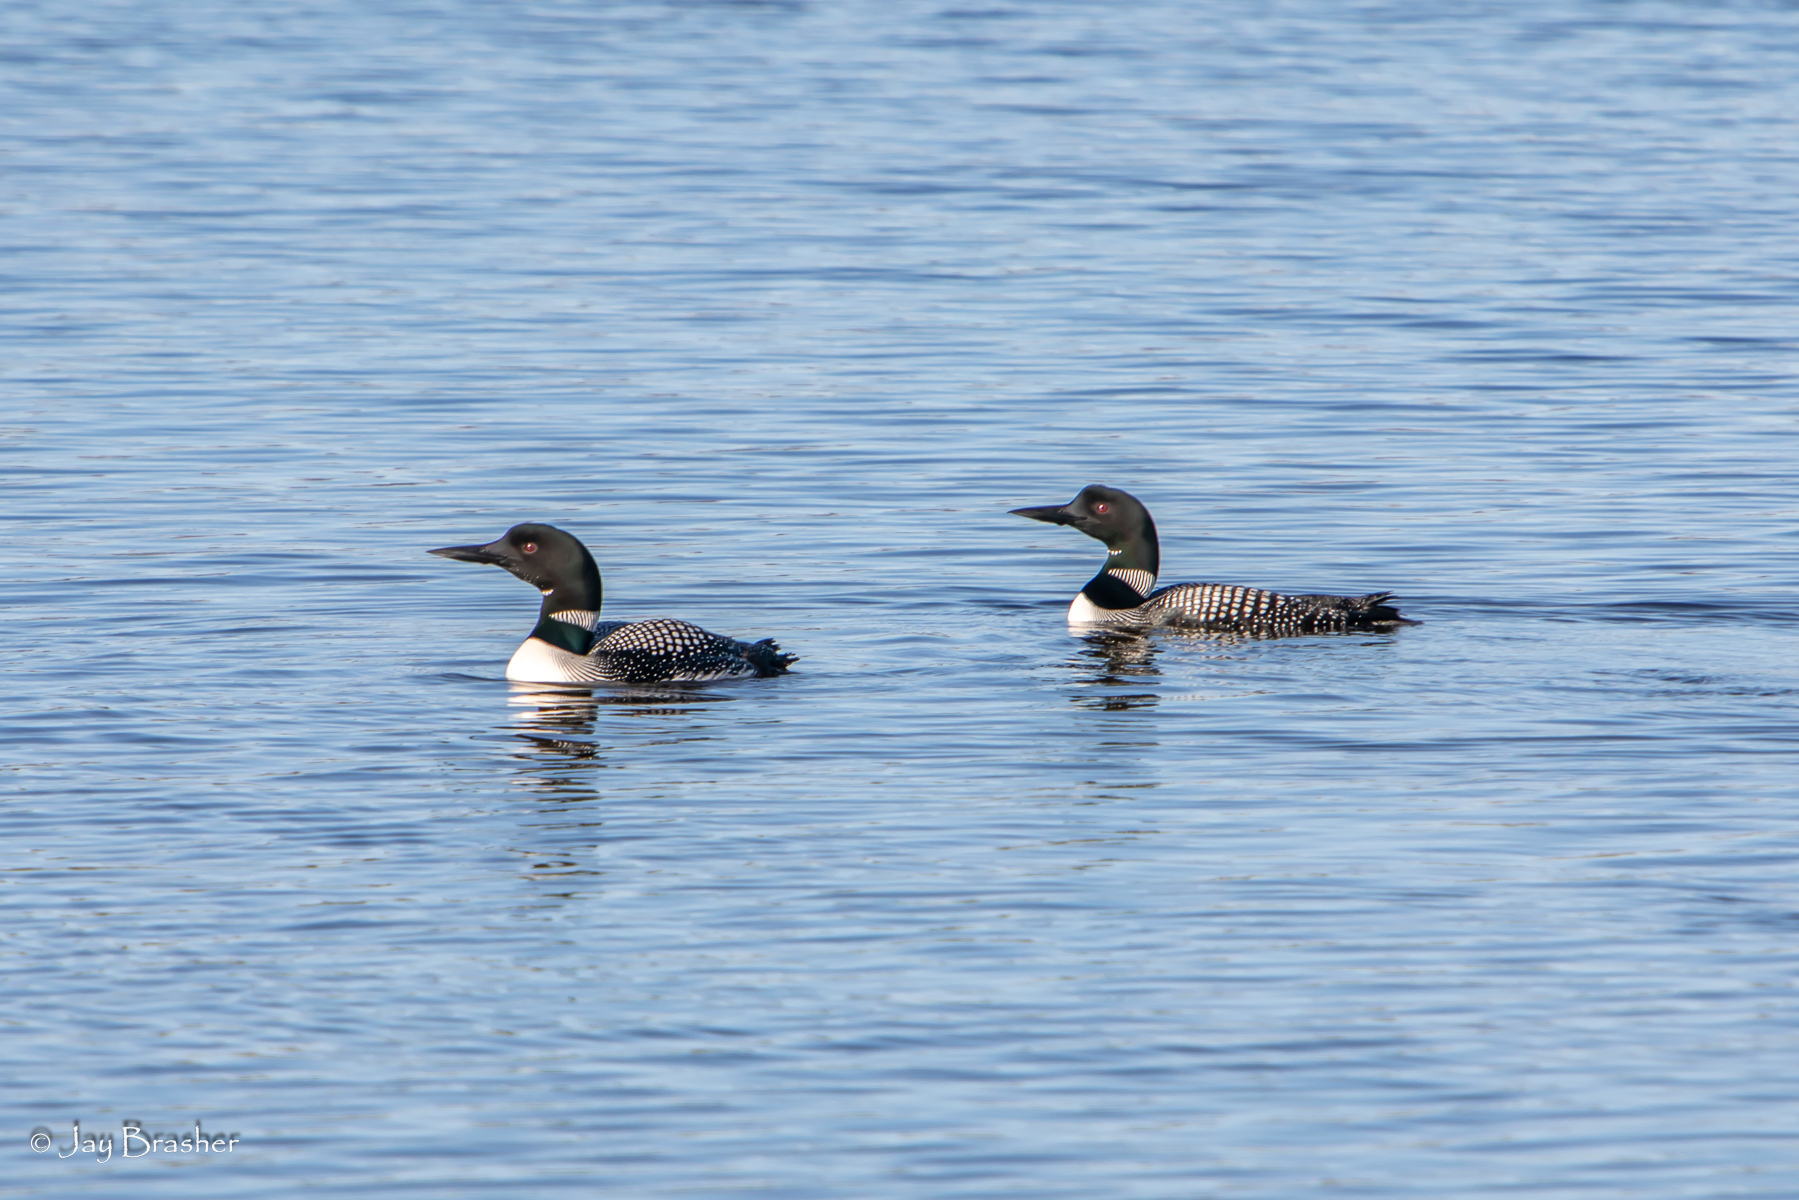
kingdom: Animalia
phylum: Chordata
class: Aves
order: Gaviiformes
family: Gaviidae
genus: Gavia
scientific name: Gavia immer
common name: Common loon
